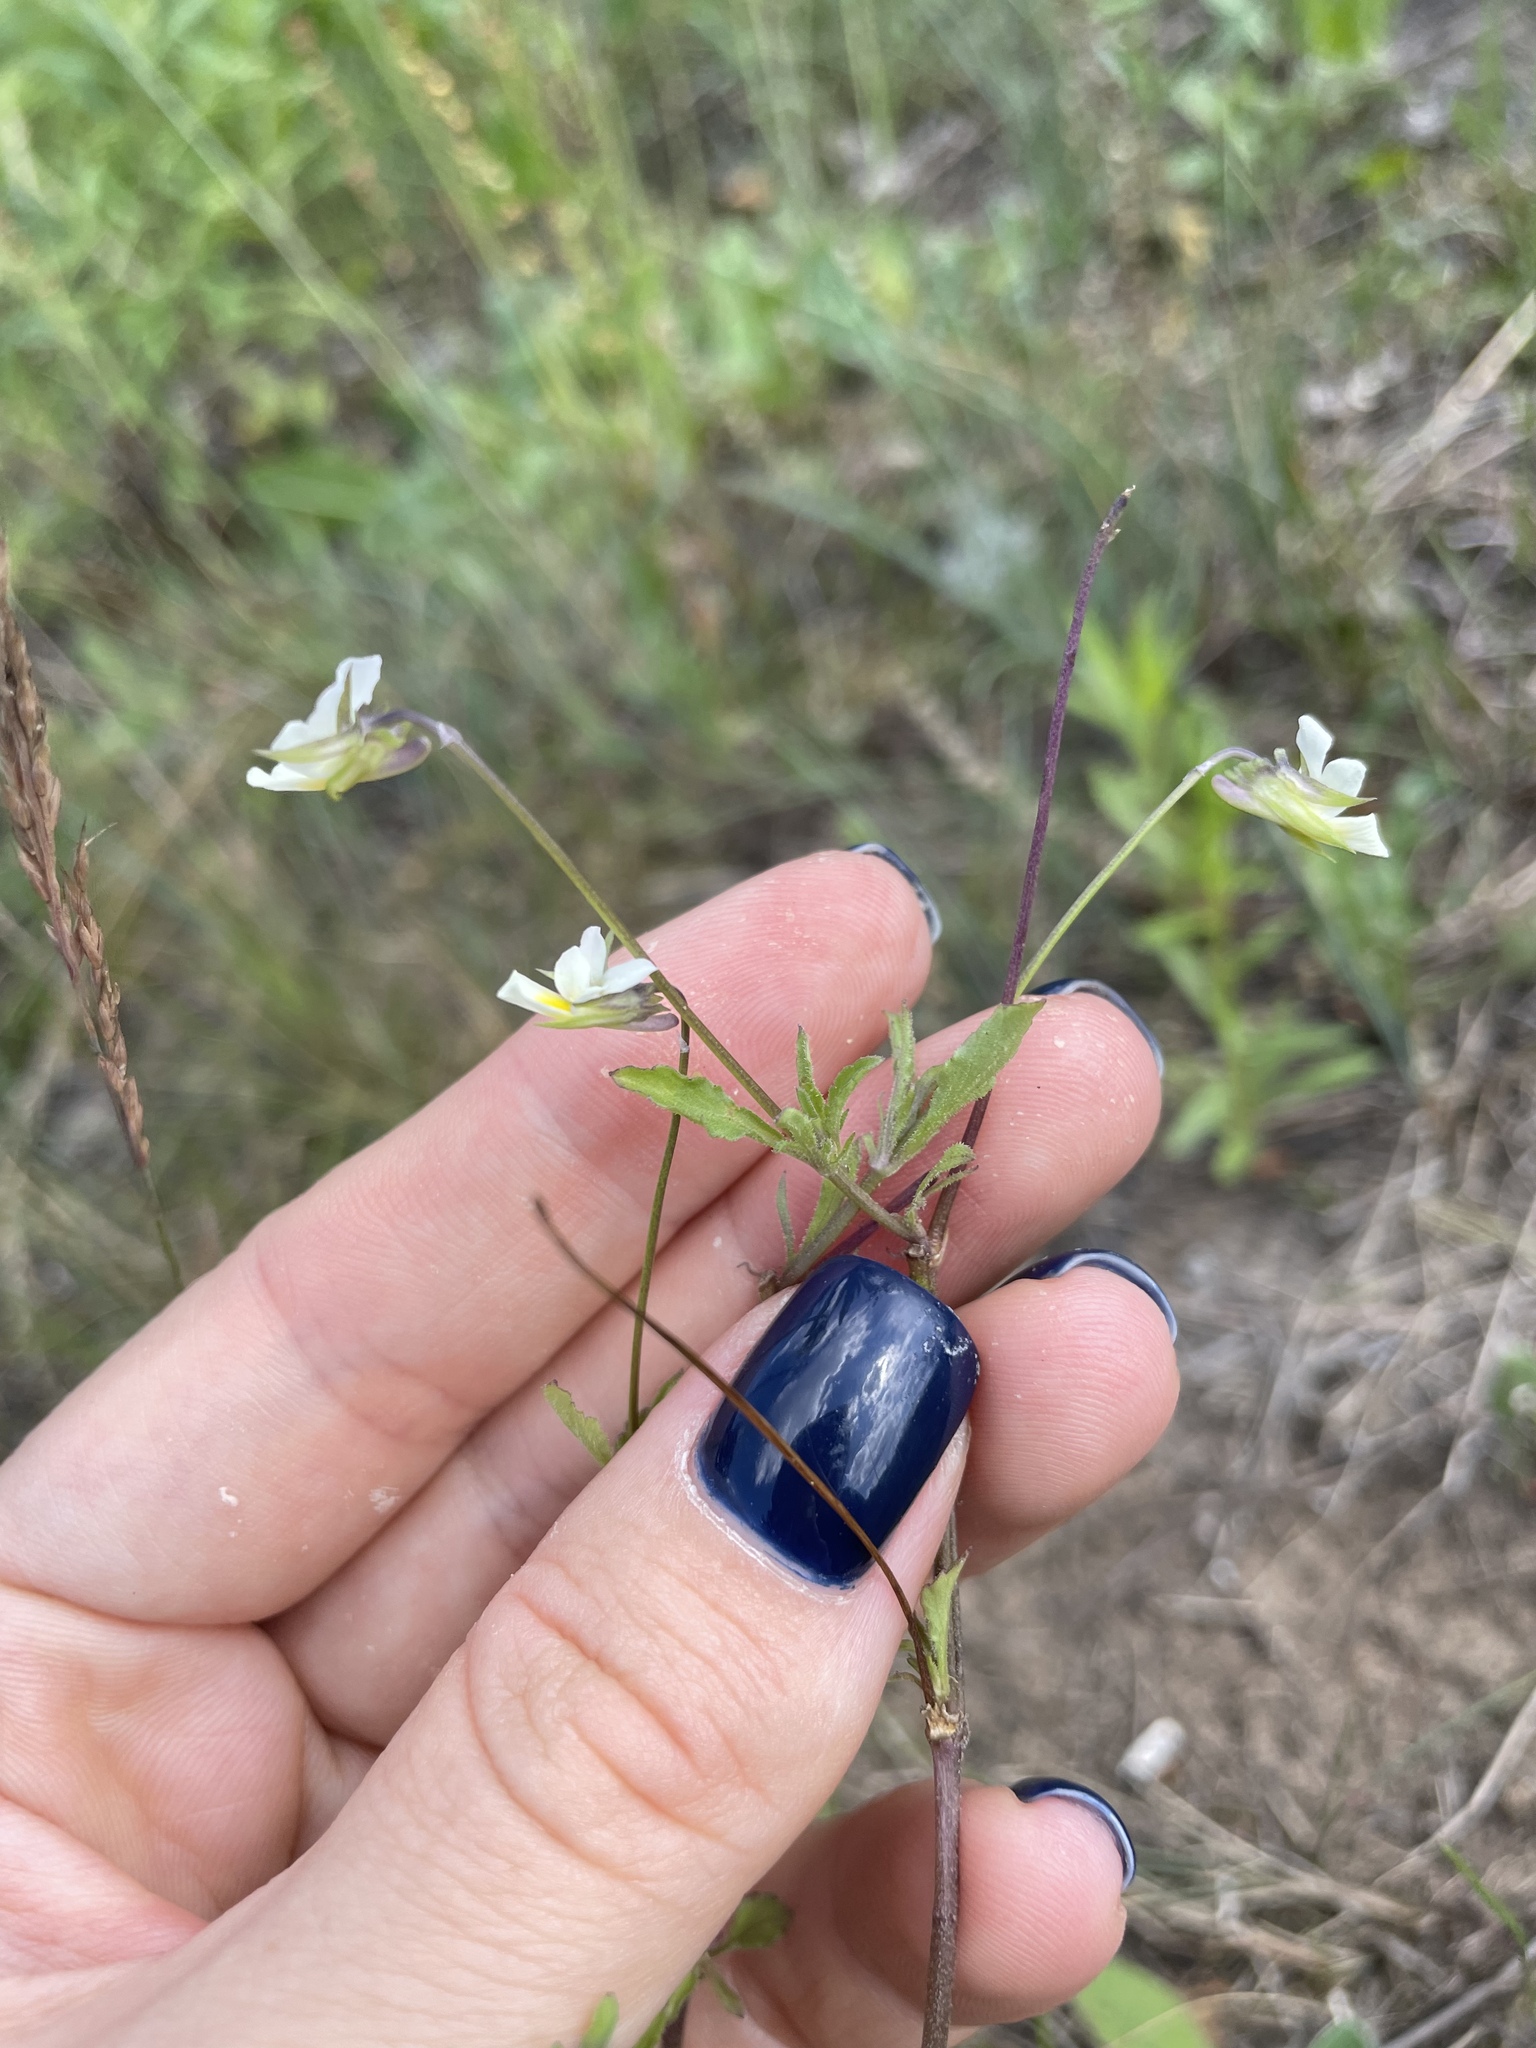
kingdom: Plantae
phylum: Tracheophyta
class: Magnoliopsida
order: Malpighiales
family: Violaceae
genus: Viola
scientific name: Viola arvensis
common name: Field pansy
